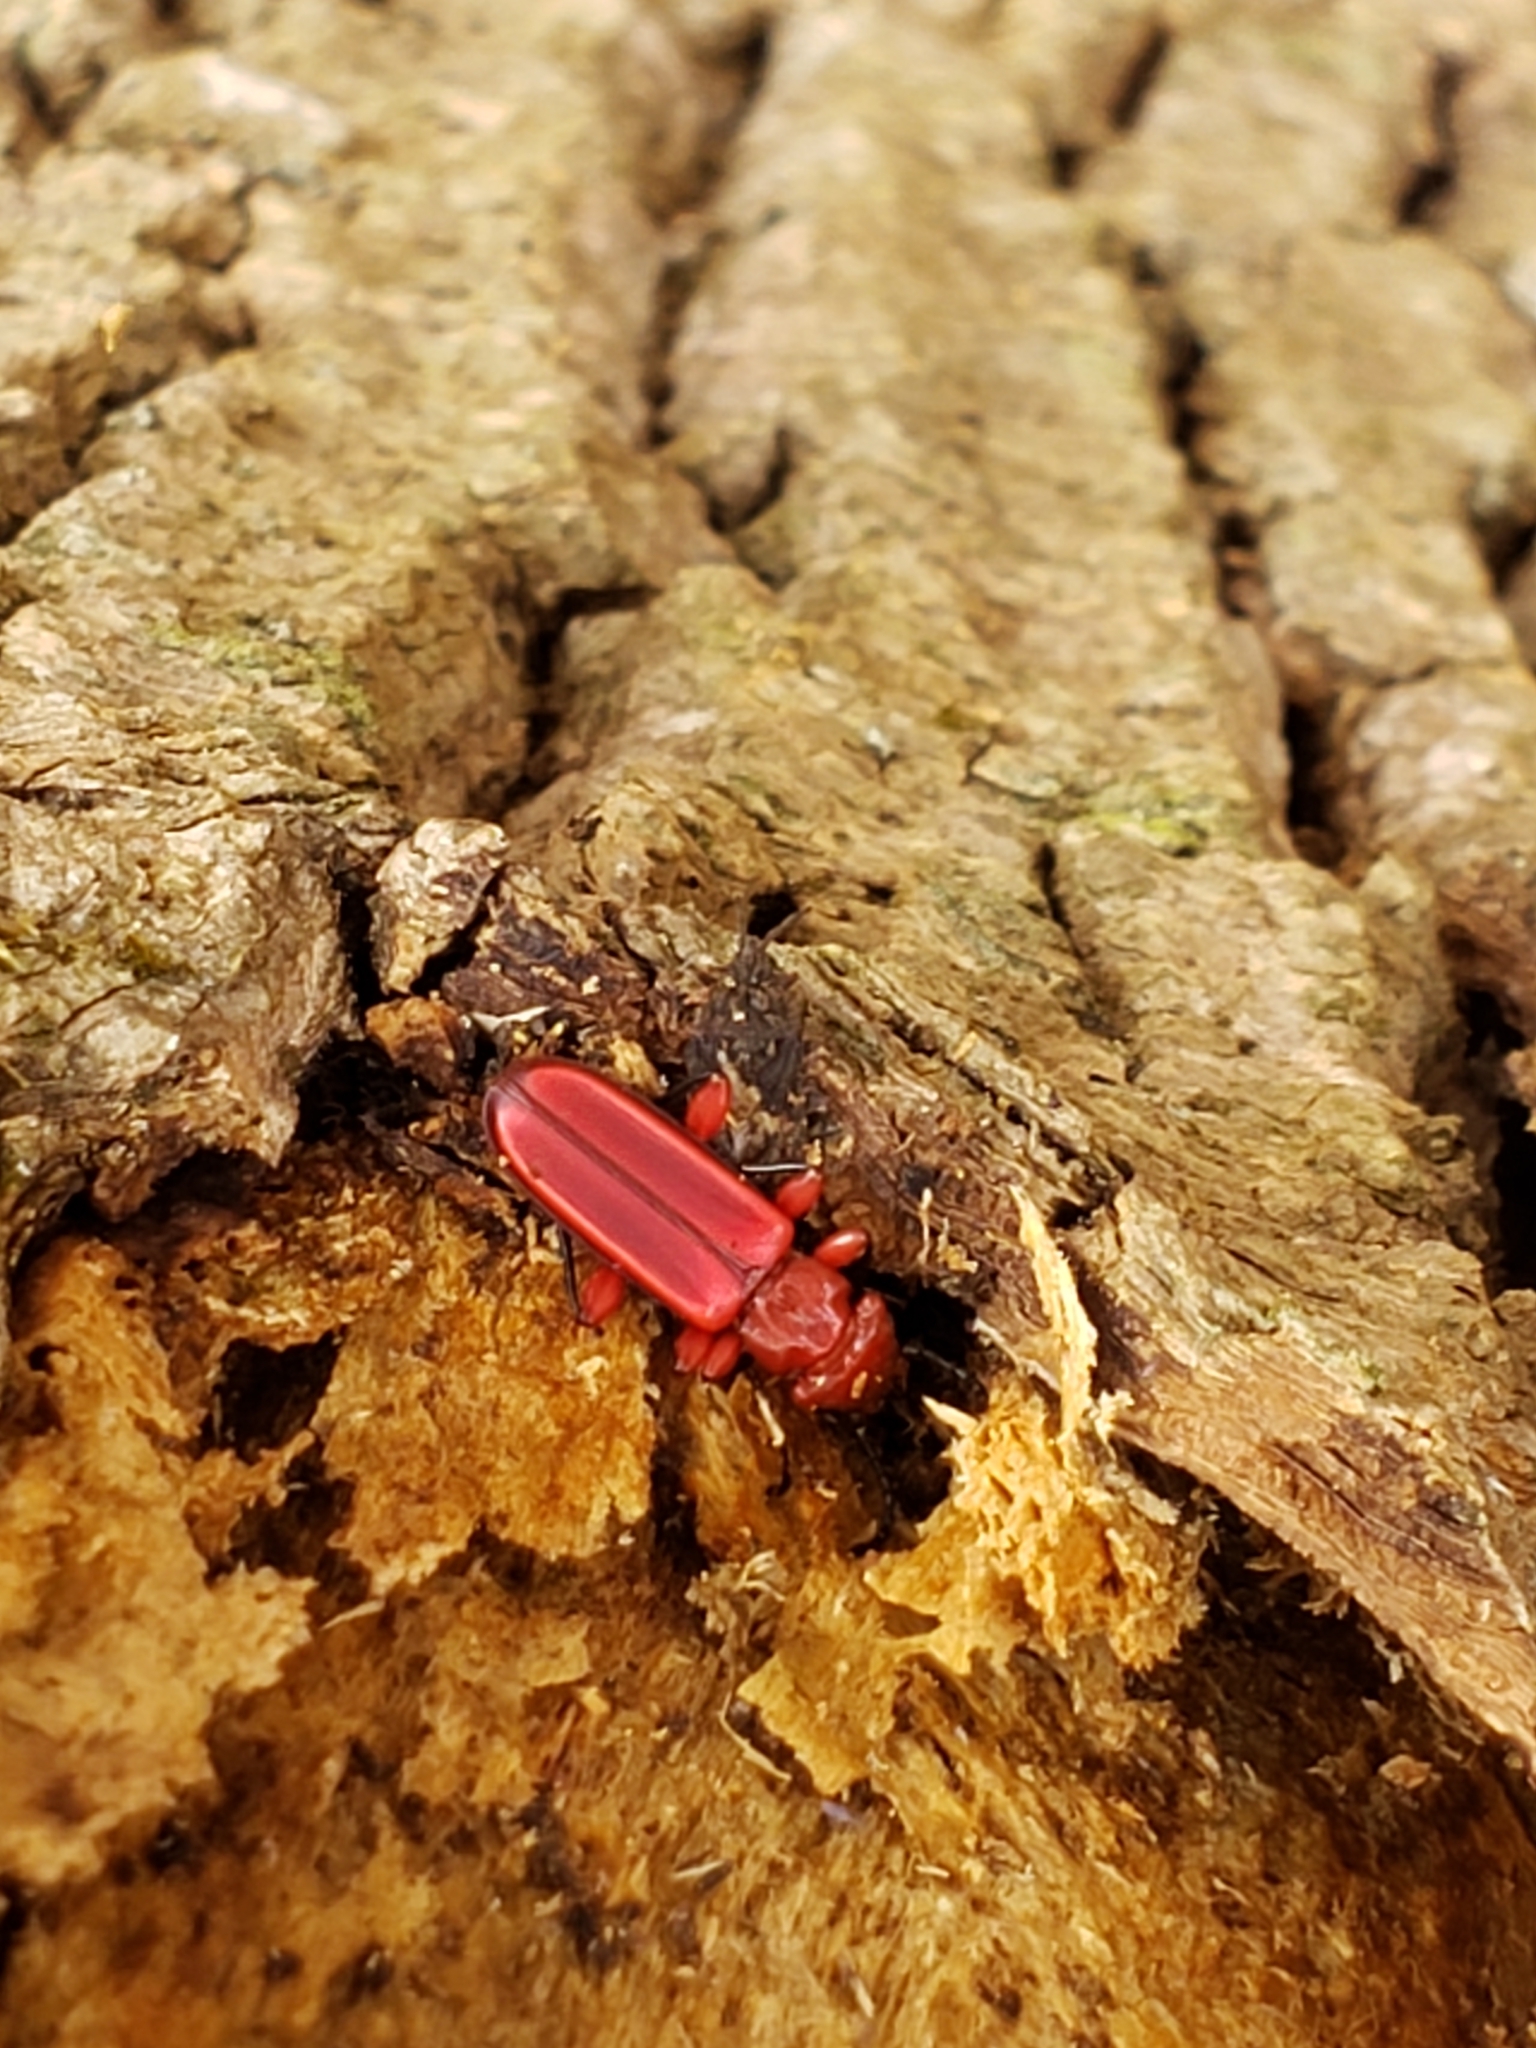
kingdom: Animalia
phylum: Arthropoda
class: Insecta
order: Coleoptera
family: Cucujidae
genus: Cucujus
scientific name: Cucujus clavipes
